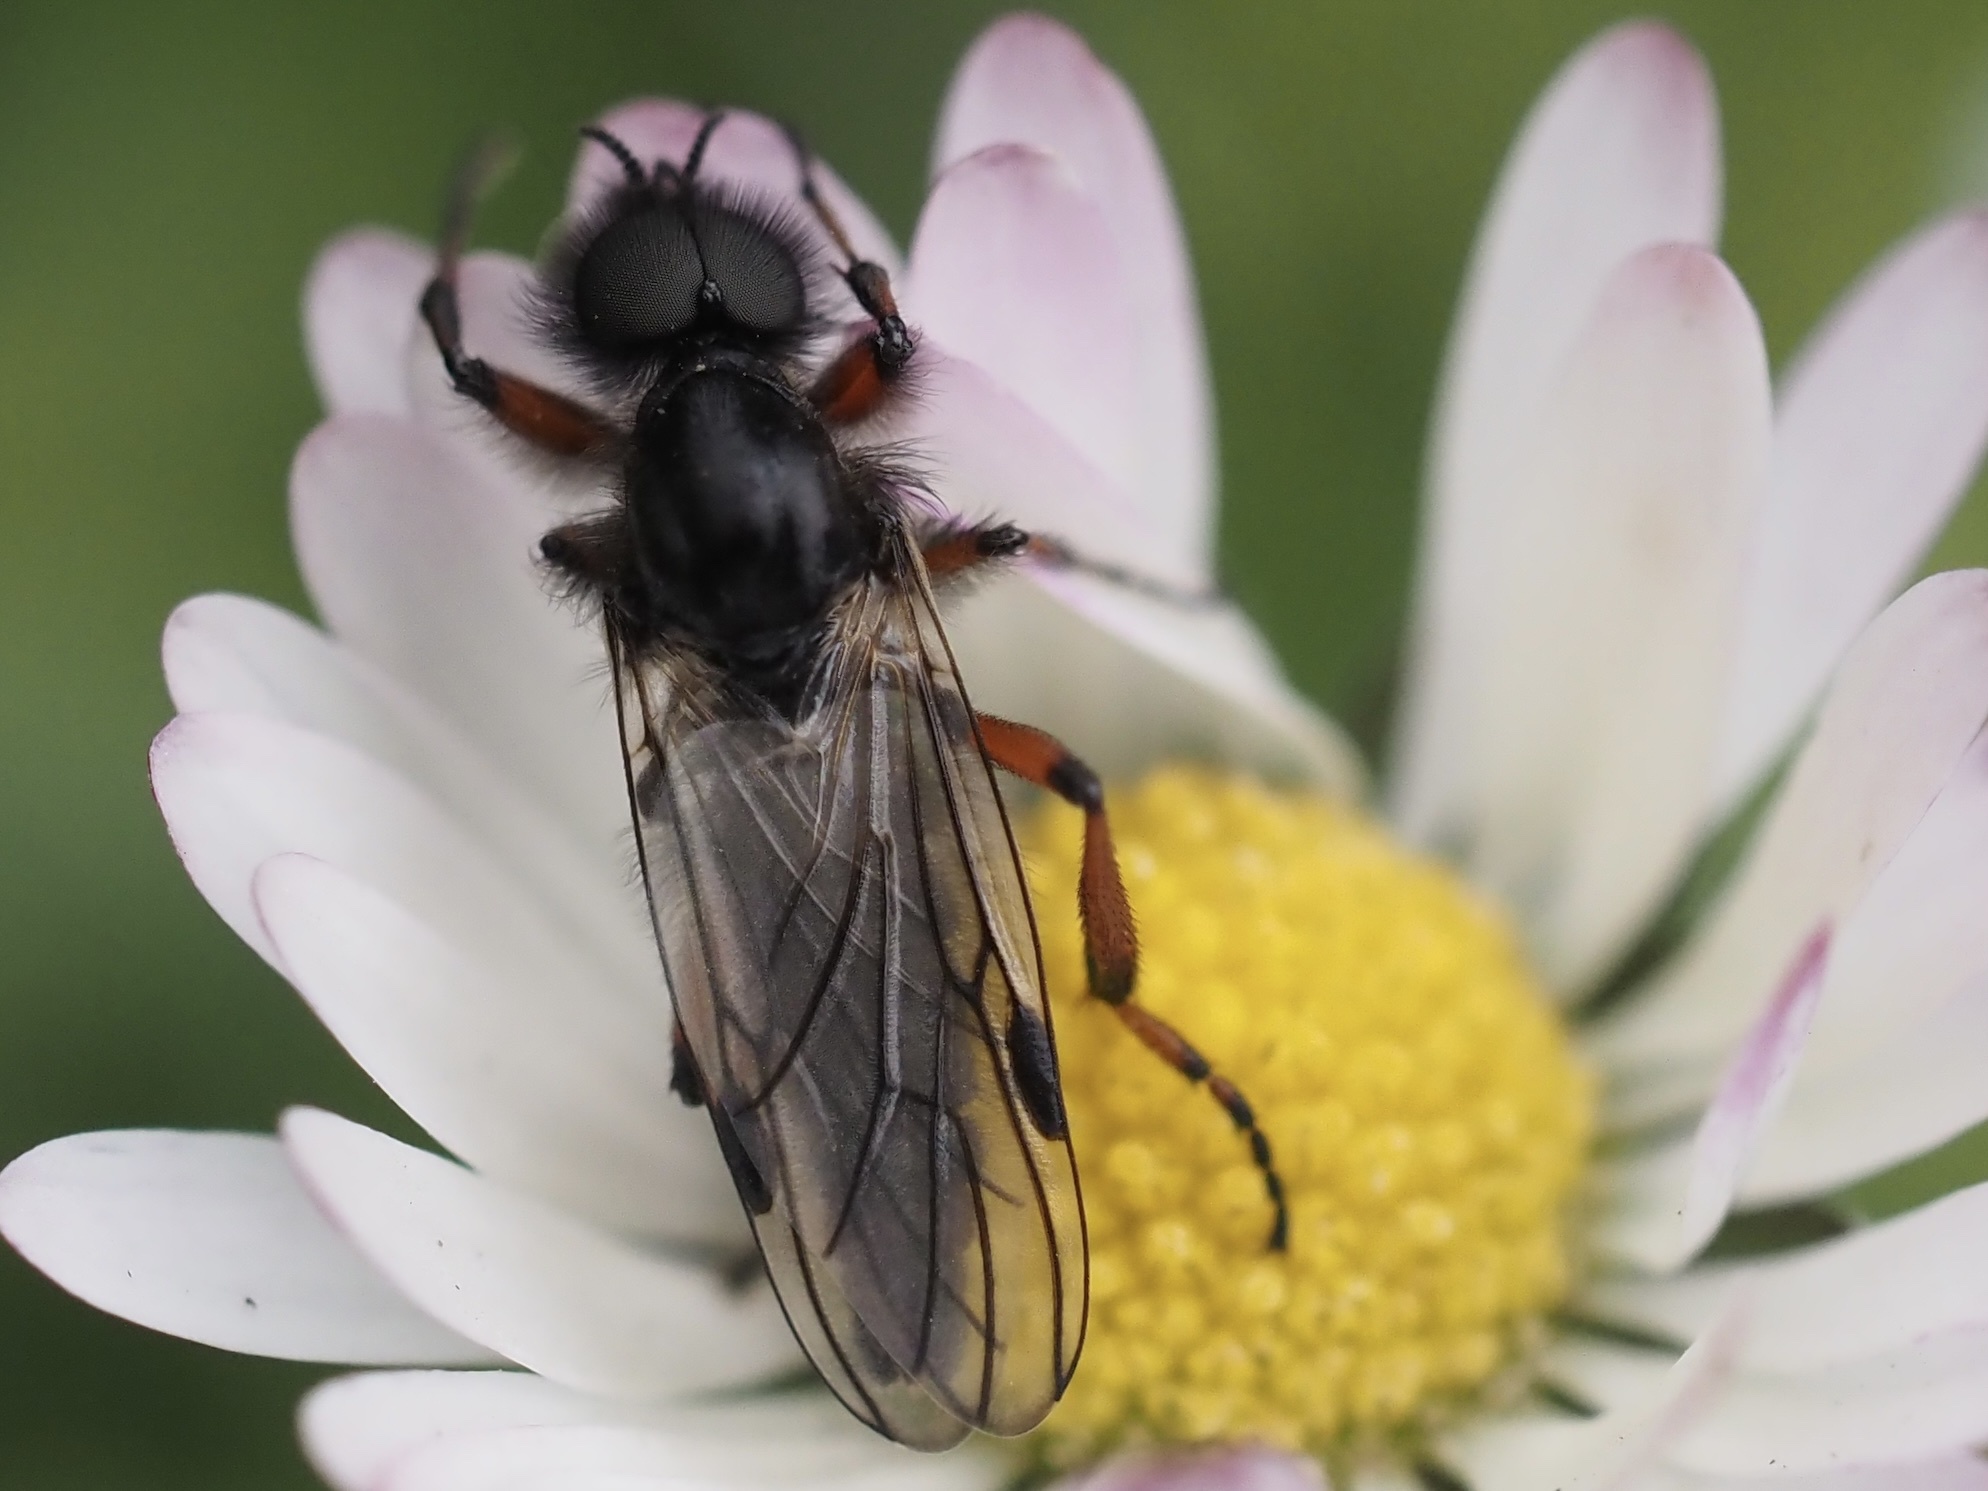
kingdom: Animalia
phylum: Arthropoda
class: Insecta
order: Diptera
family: Bibionidae
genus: Bibio
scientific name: Bibio xanthopus
